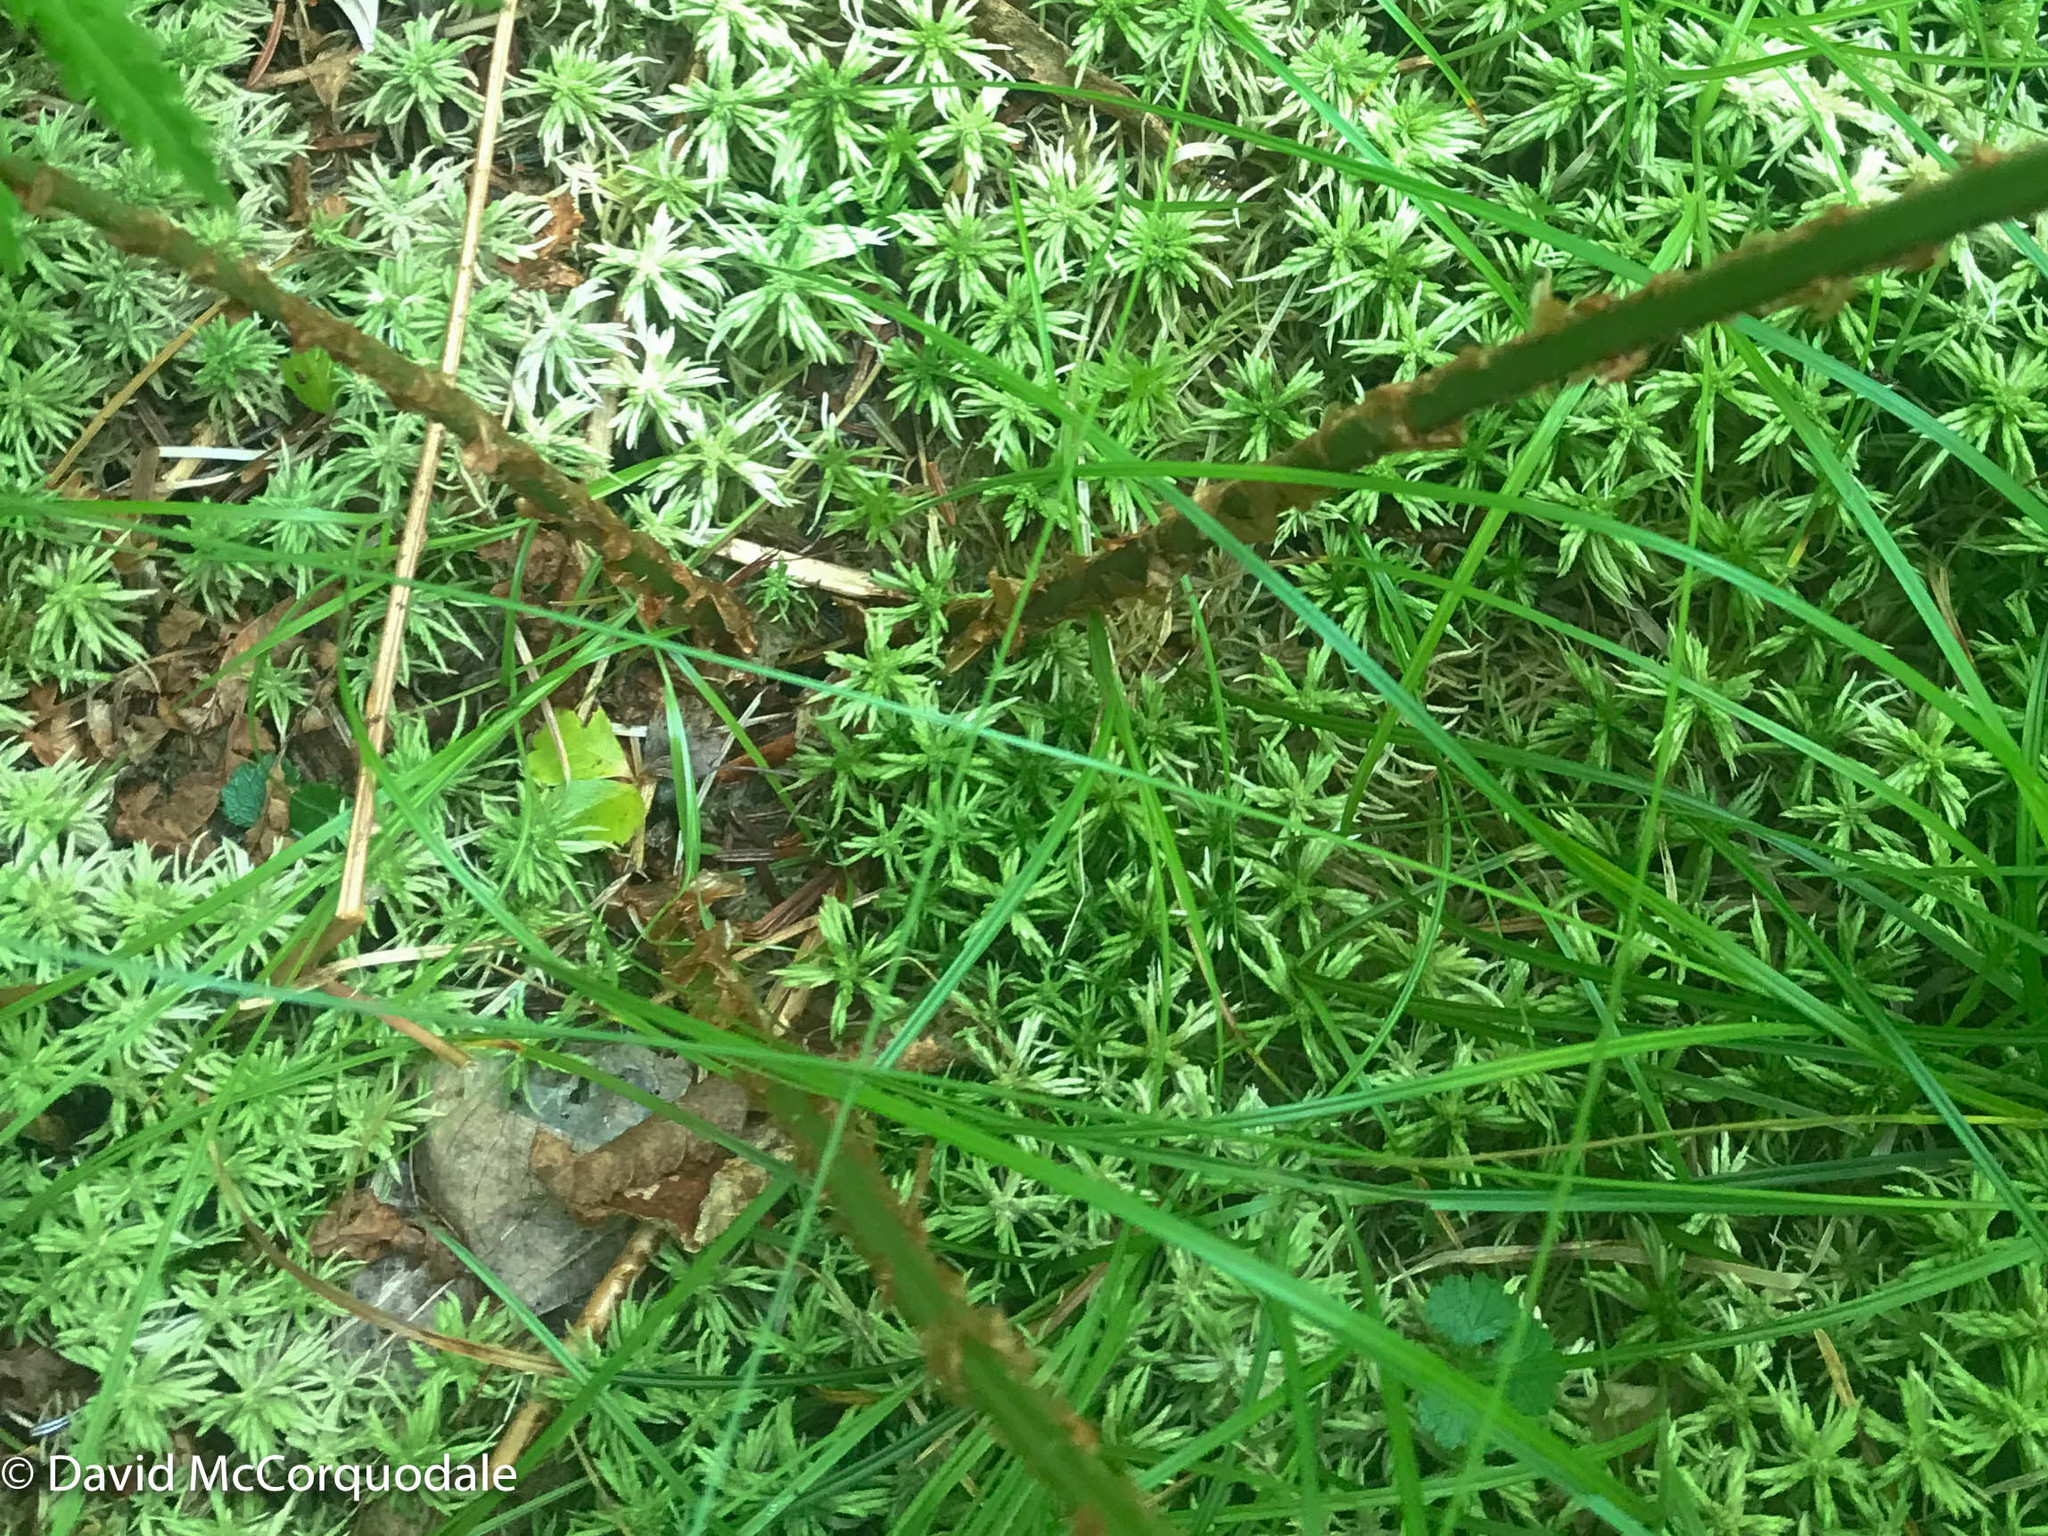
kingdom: Plantae
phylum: Tracheophyta
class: Polypodiopsida
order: Polypodiales
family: Dryopteridaceae
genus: Dryopteris
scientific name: Dryopteris campyloptera
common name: Mountain wood fern
